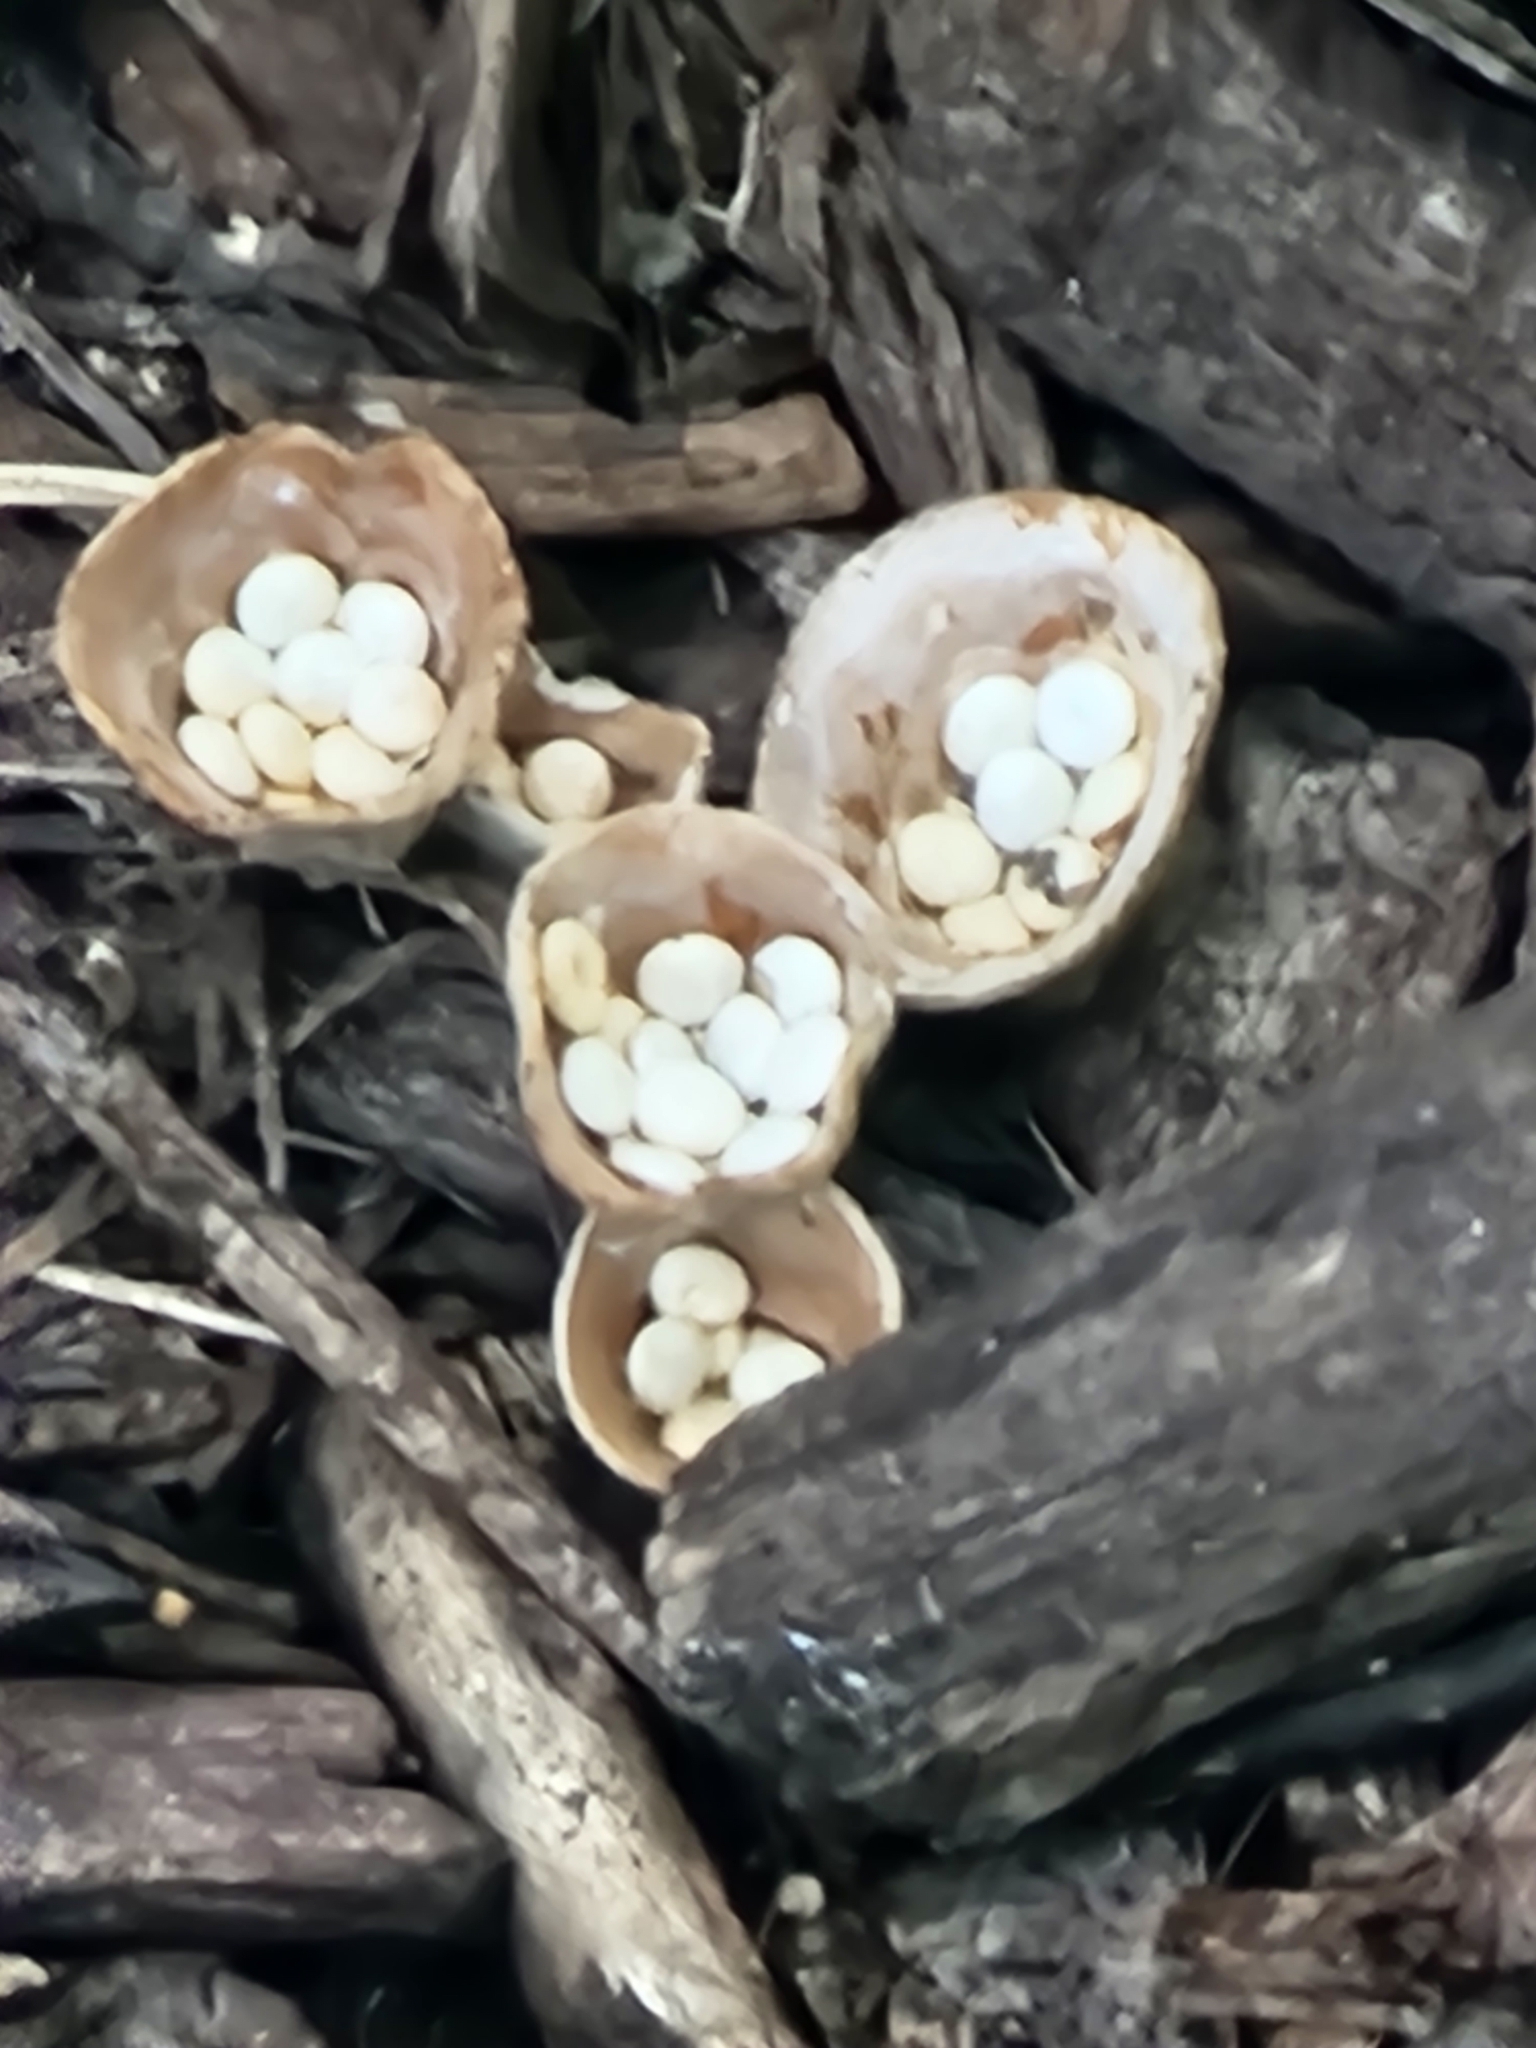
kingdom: Fungi
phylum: Basidiomycota
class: Agaricomycetes
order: Agaricales
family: Nidulariaceae
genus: Crucibulum
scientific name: Crucibulum laeve
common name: Common bird's nest
